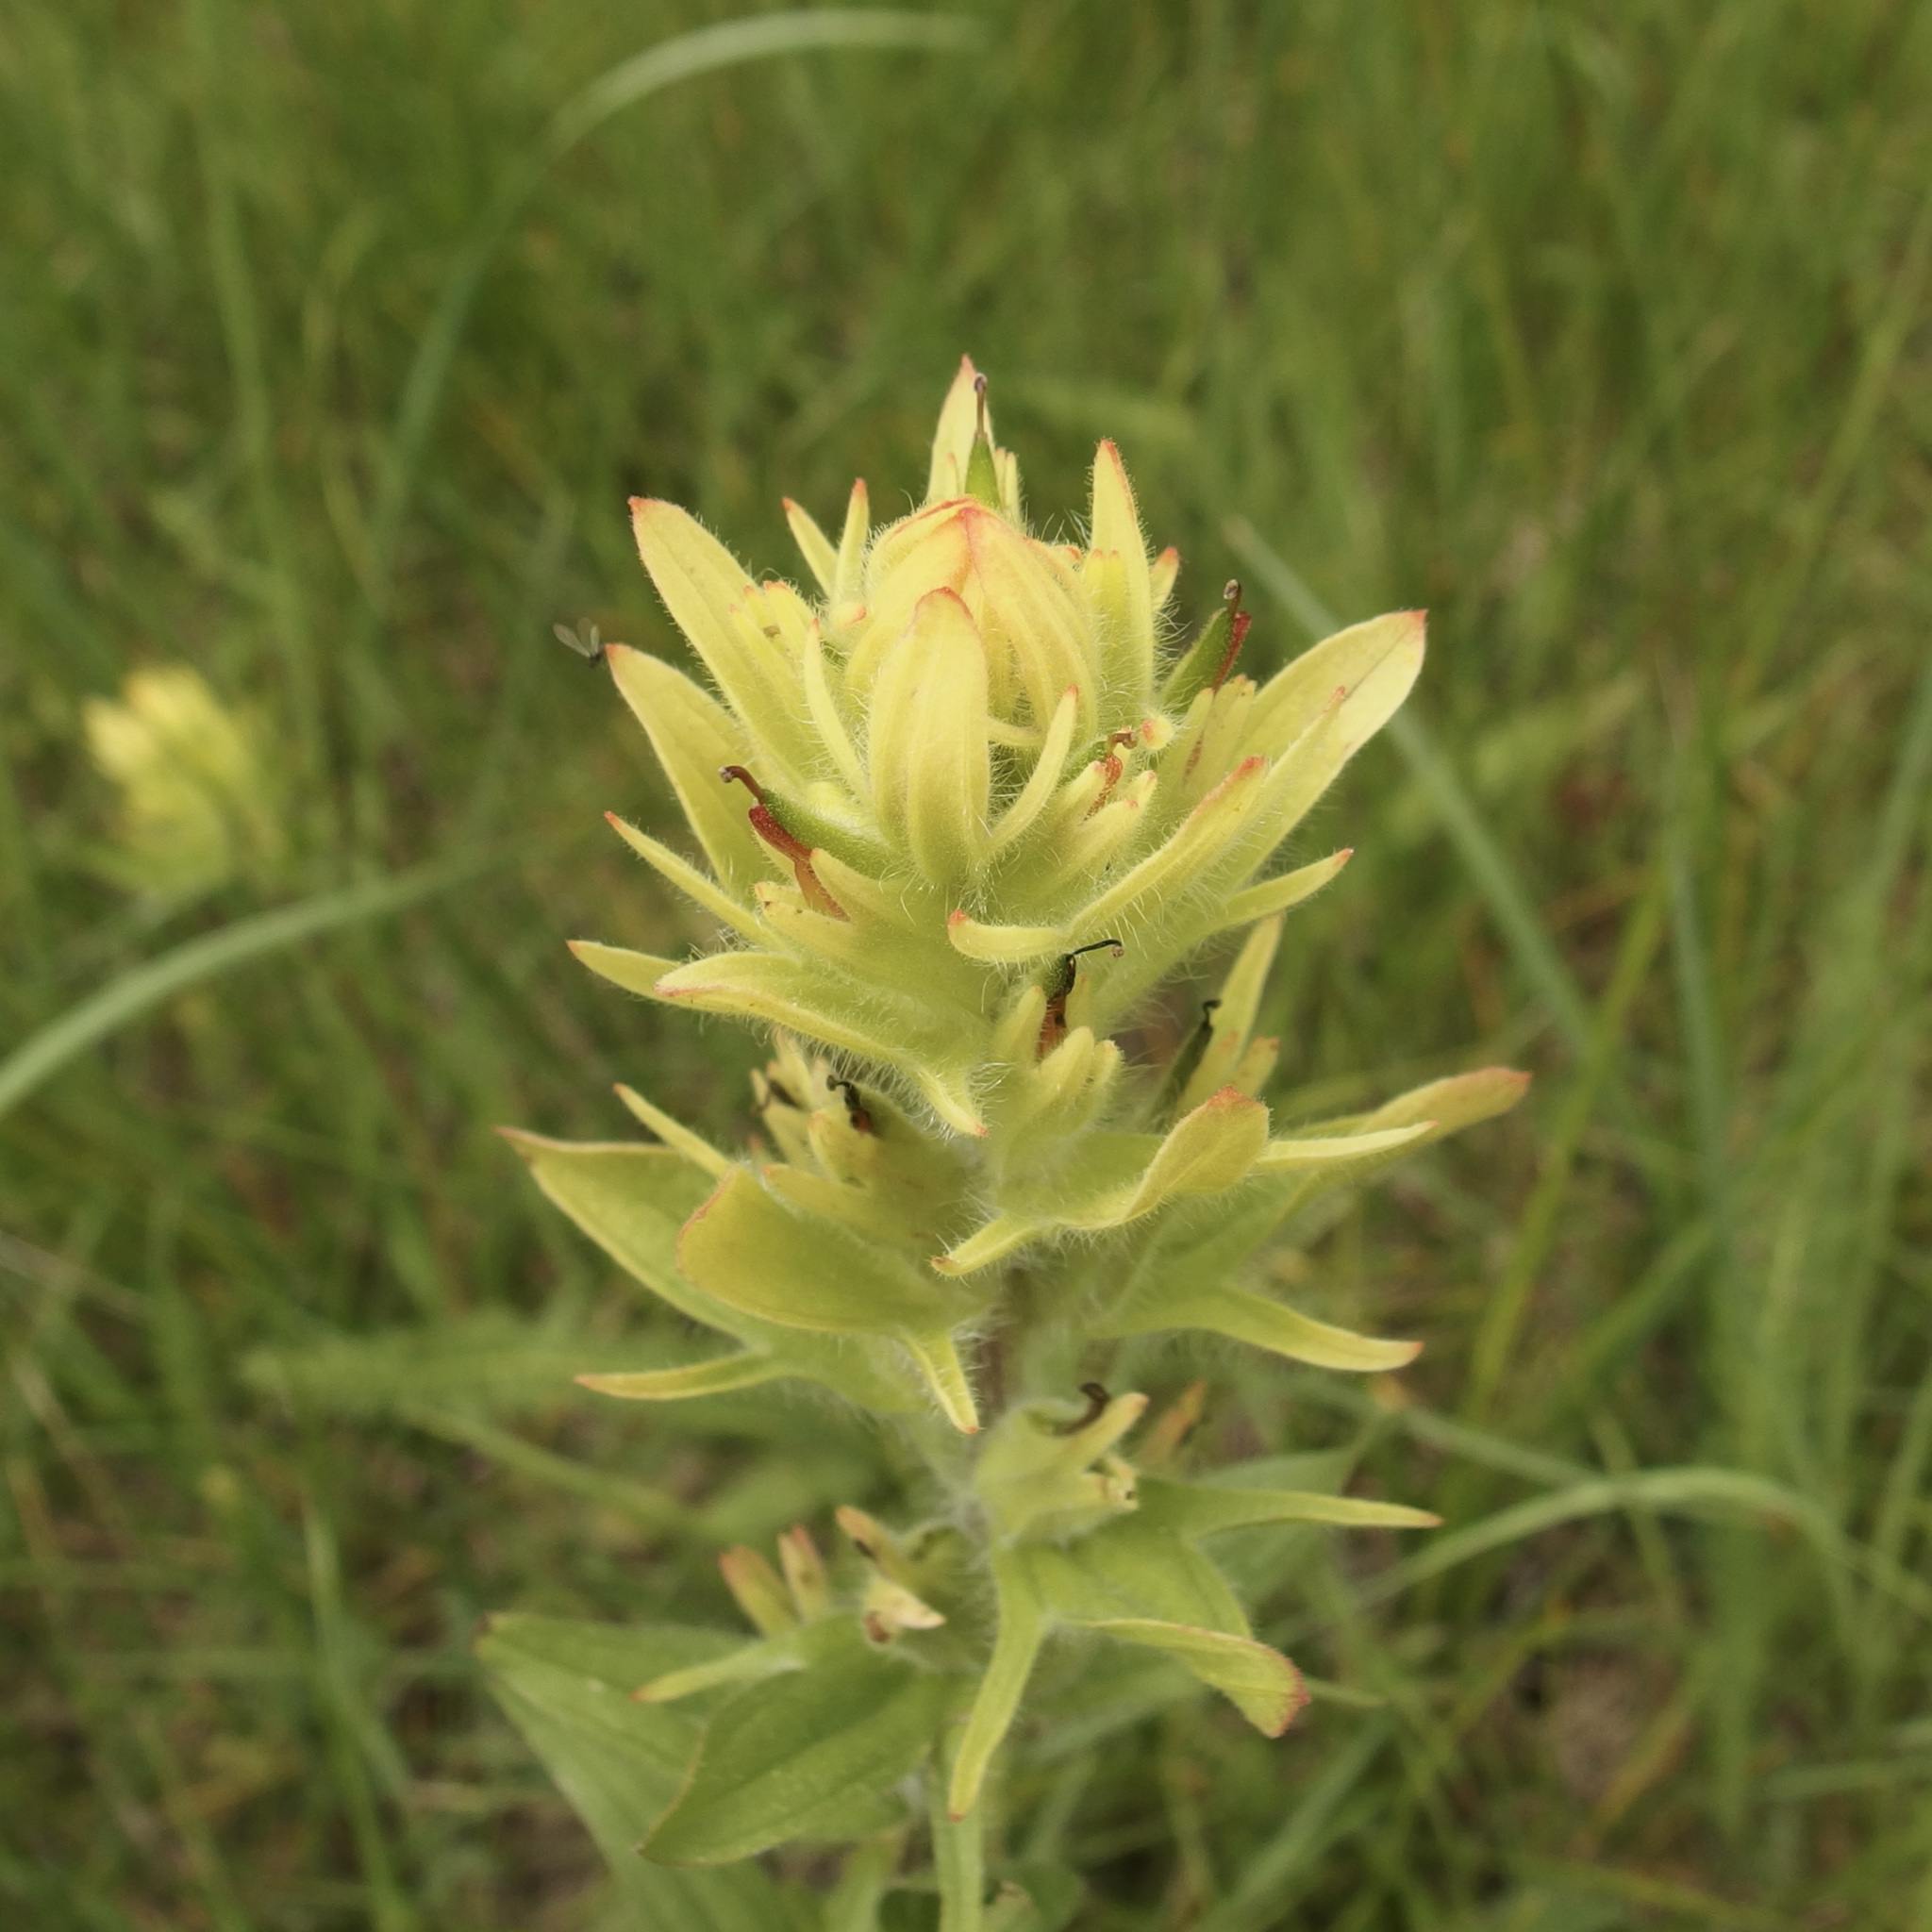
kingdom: Plantae
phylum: Tracheophyta
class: Magnoliopsida
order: Lamiales
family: Orobanchaceae
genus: Castilleja
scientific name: Castilleja mogollonica
